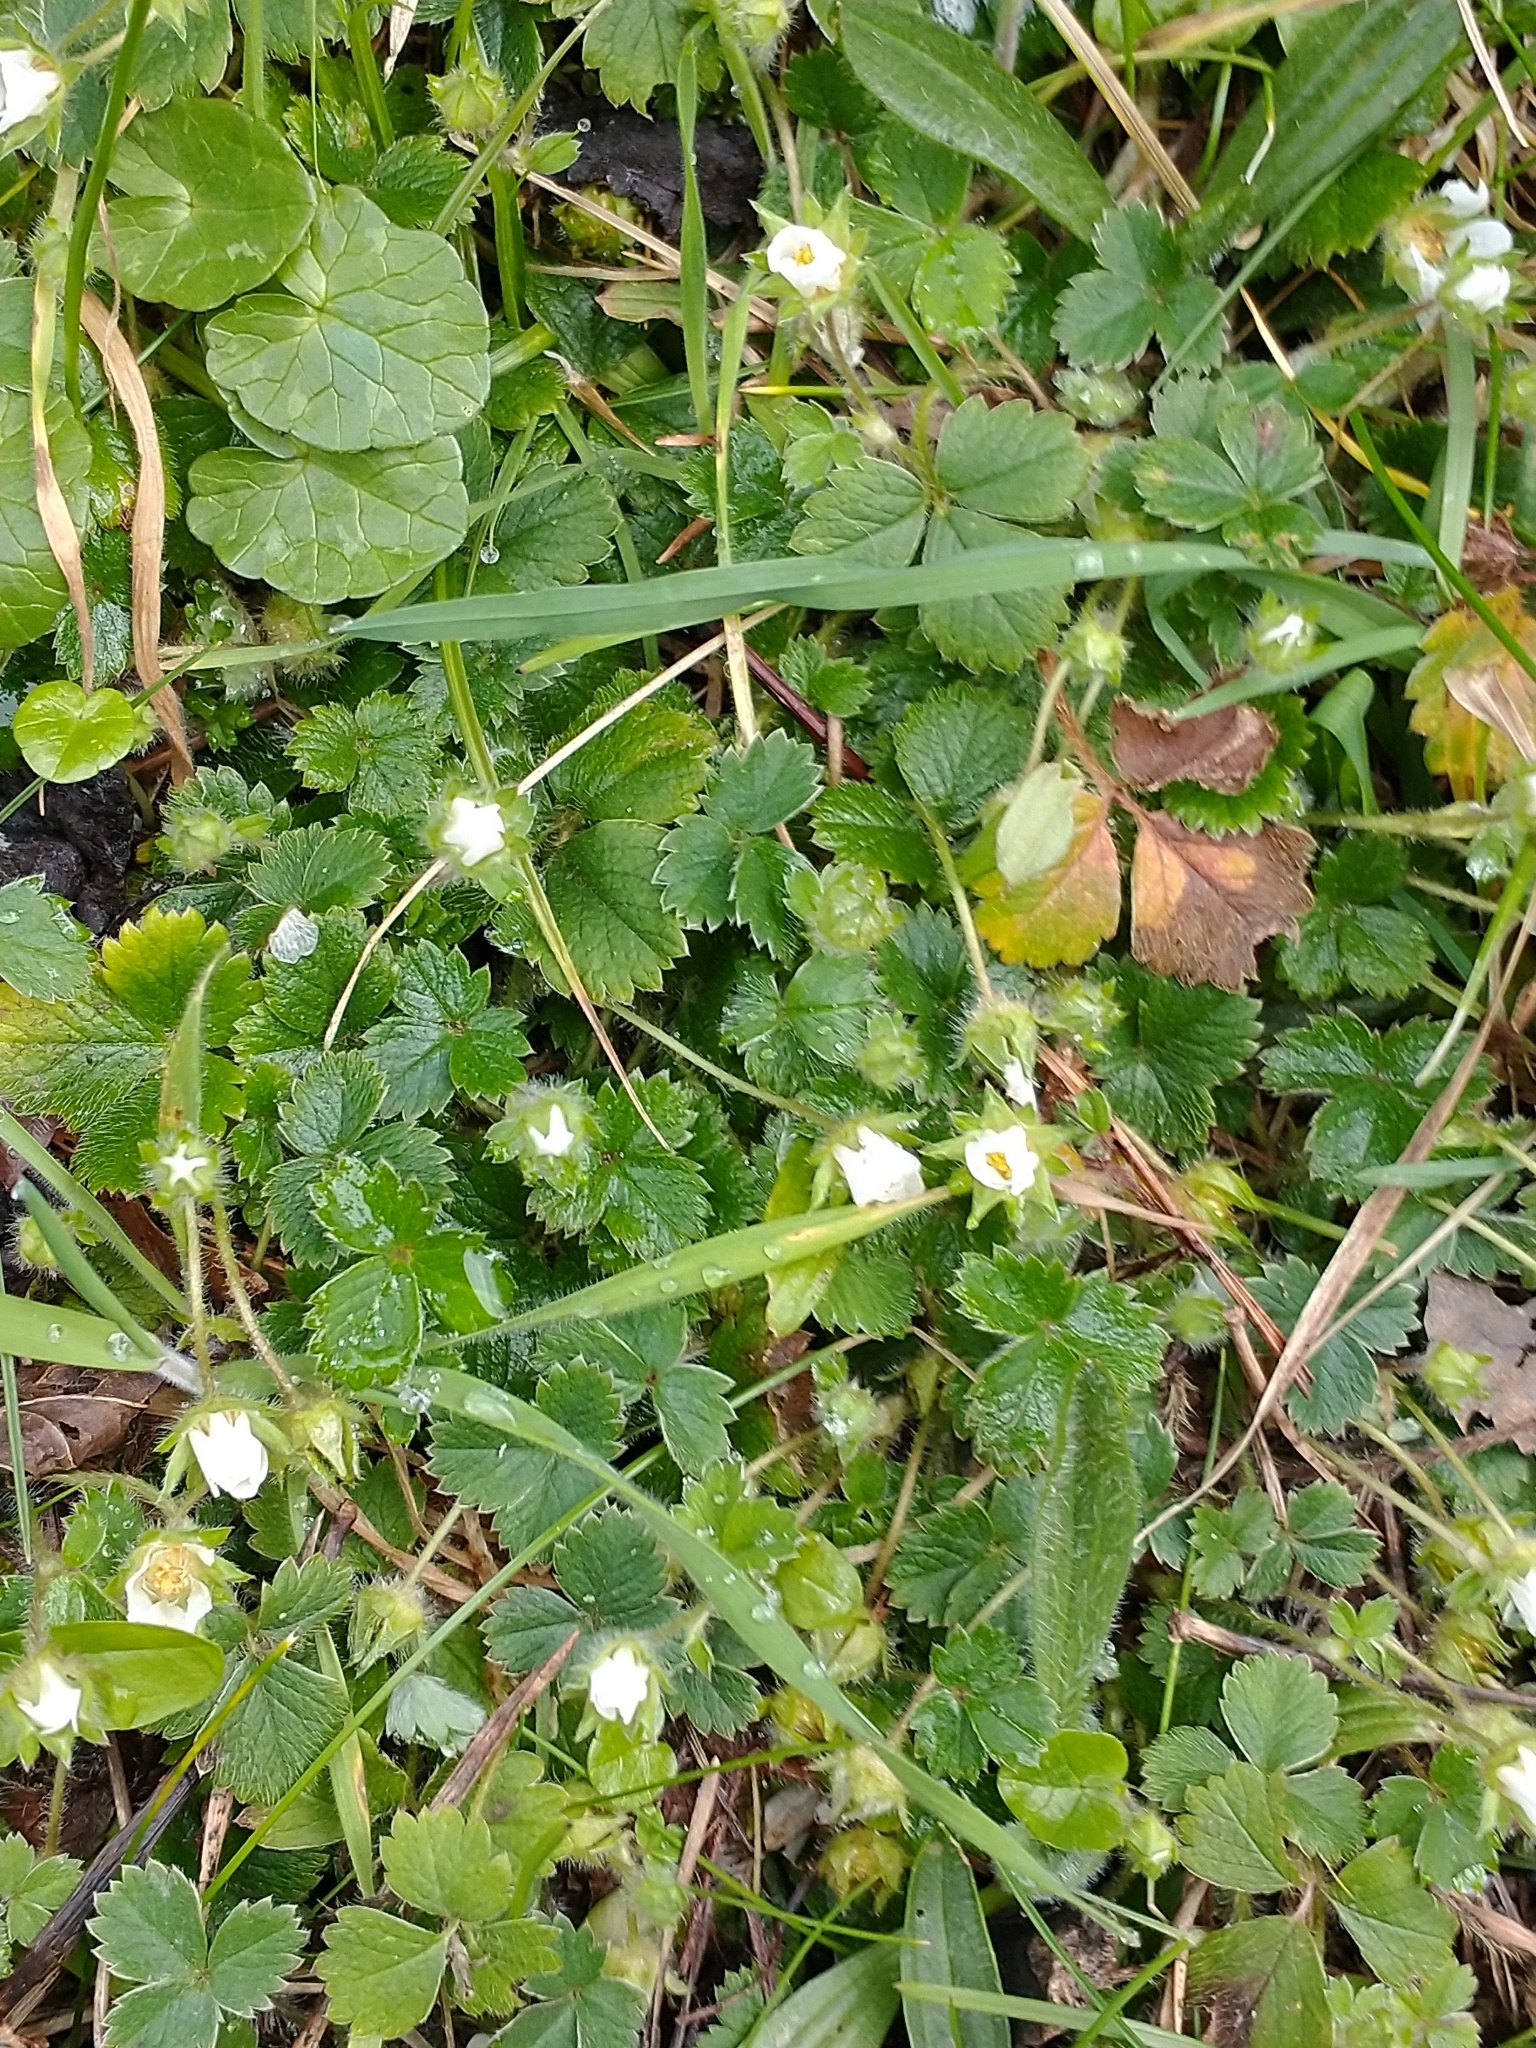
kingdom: Plantae
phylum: Tracheophyta
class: Magnoliopsida
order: Rosales
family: Rosaceae
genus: Potentilla
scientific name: Potentilla sterilis
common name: Barren strawberry
